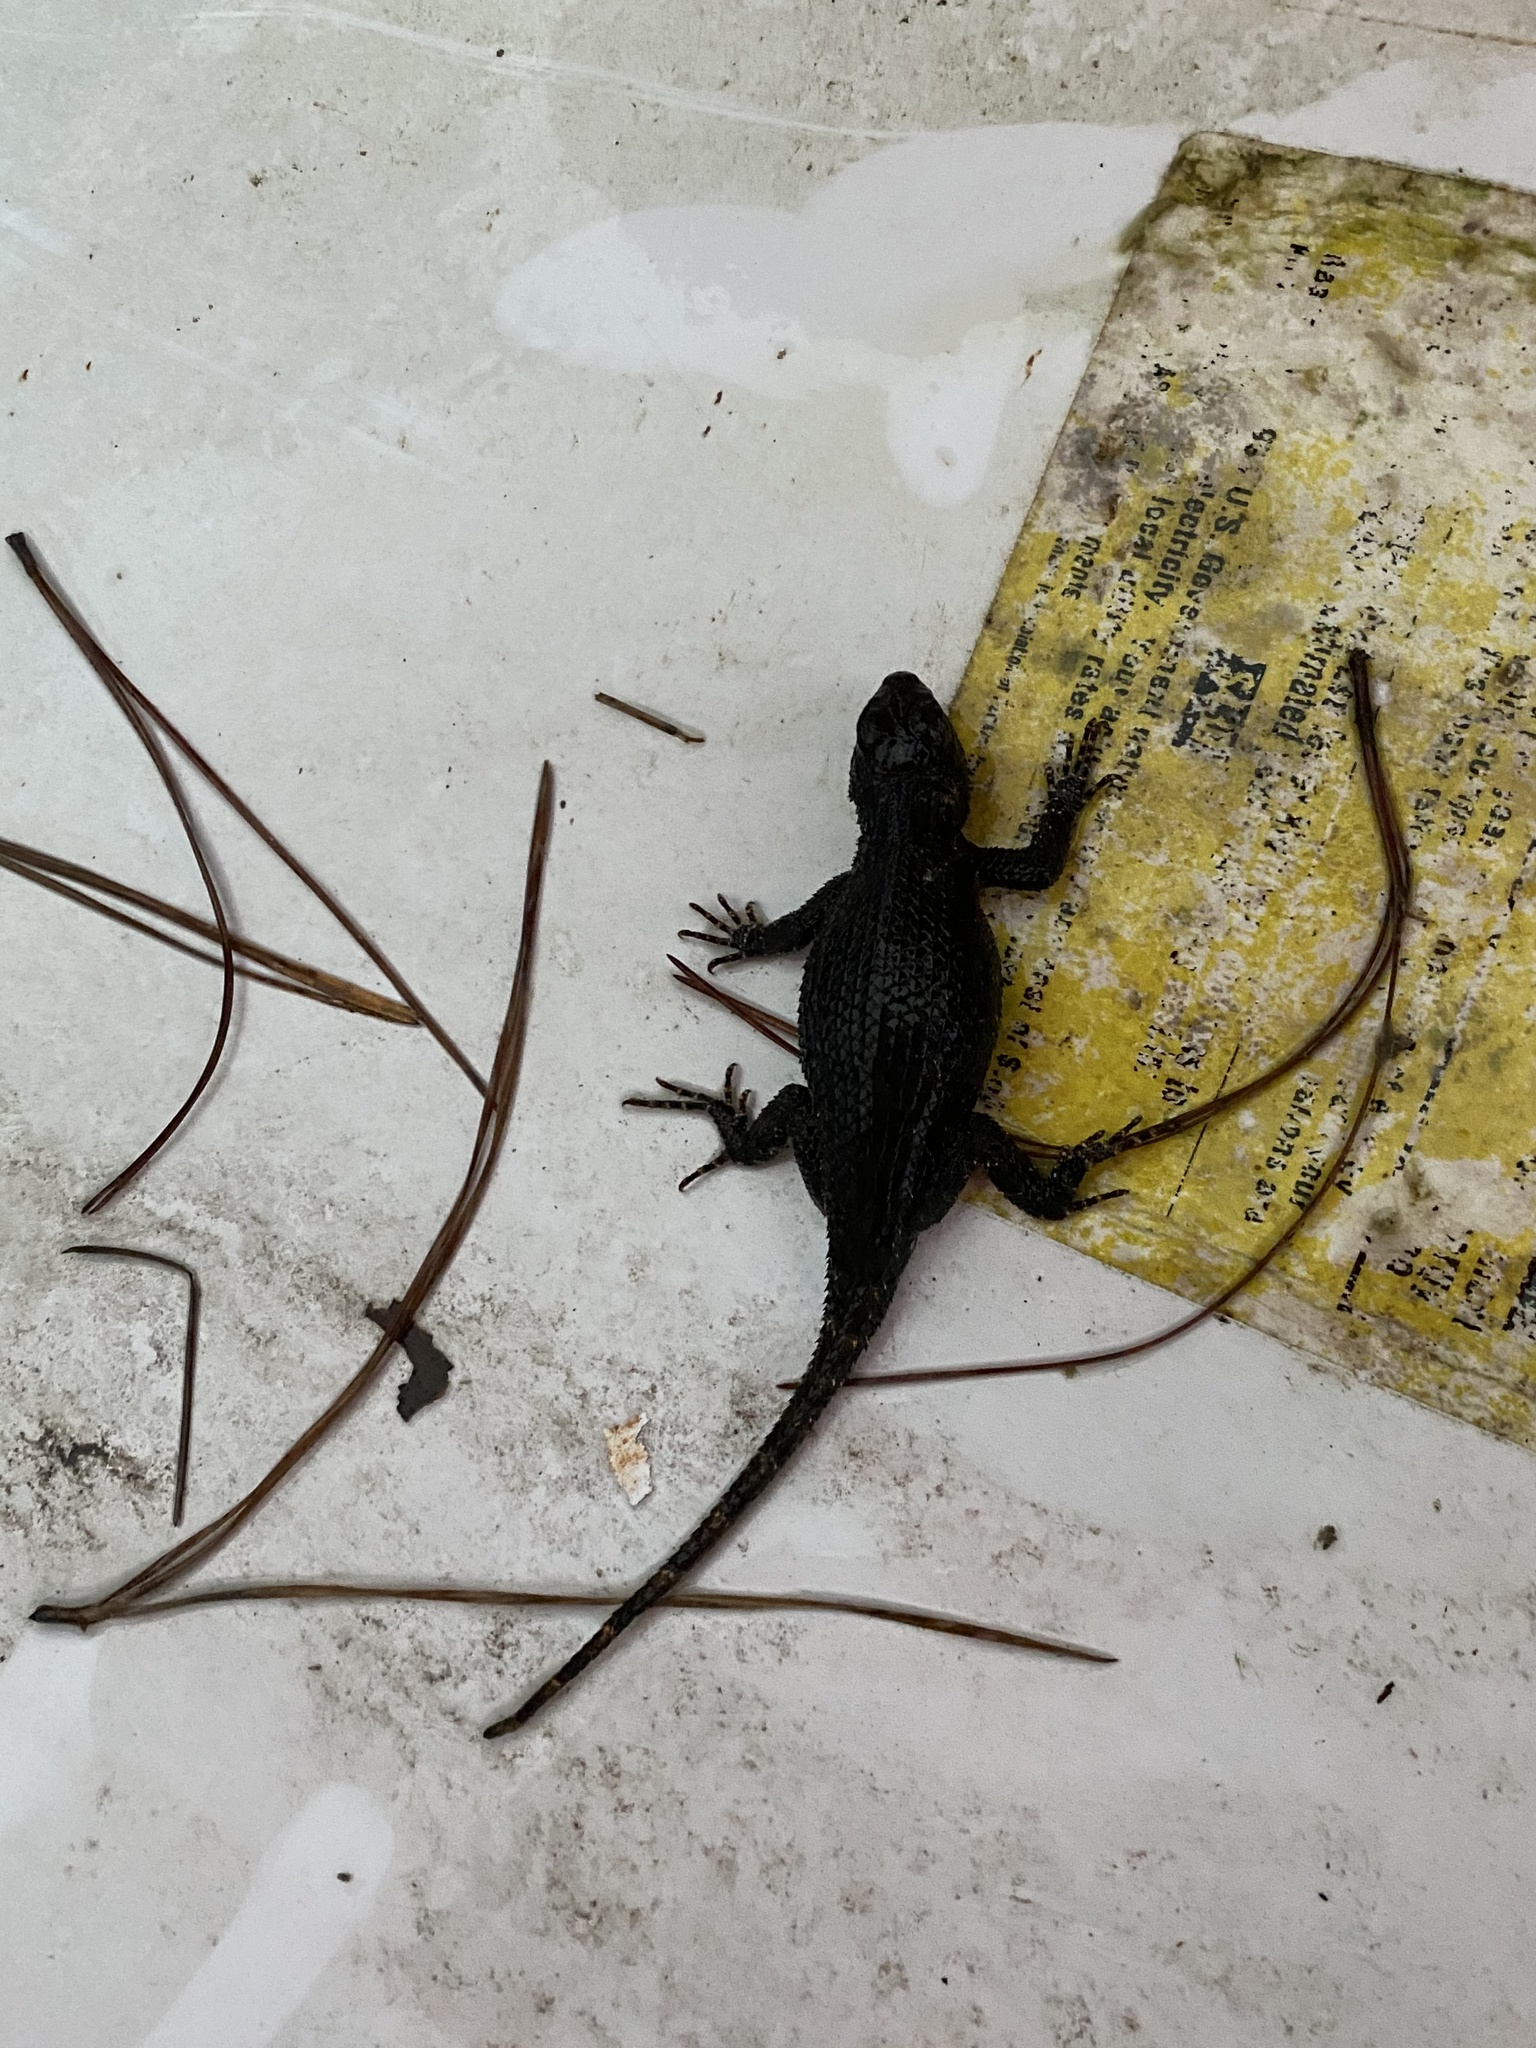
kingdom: Animalia
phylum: Chordata
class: Squamata
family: Phrynosomatidae
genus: Sceloporus
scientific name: Sceloporus undulatus
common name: Eastern fence lizard
